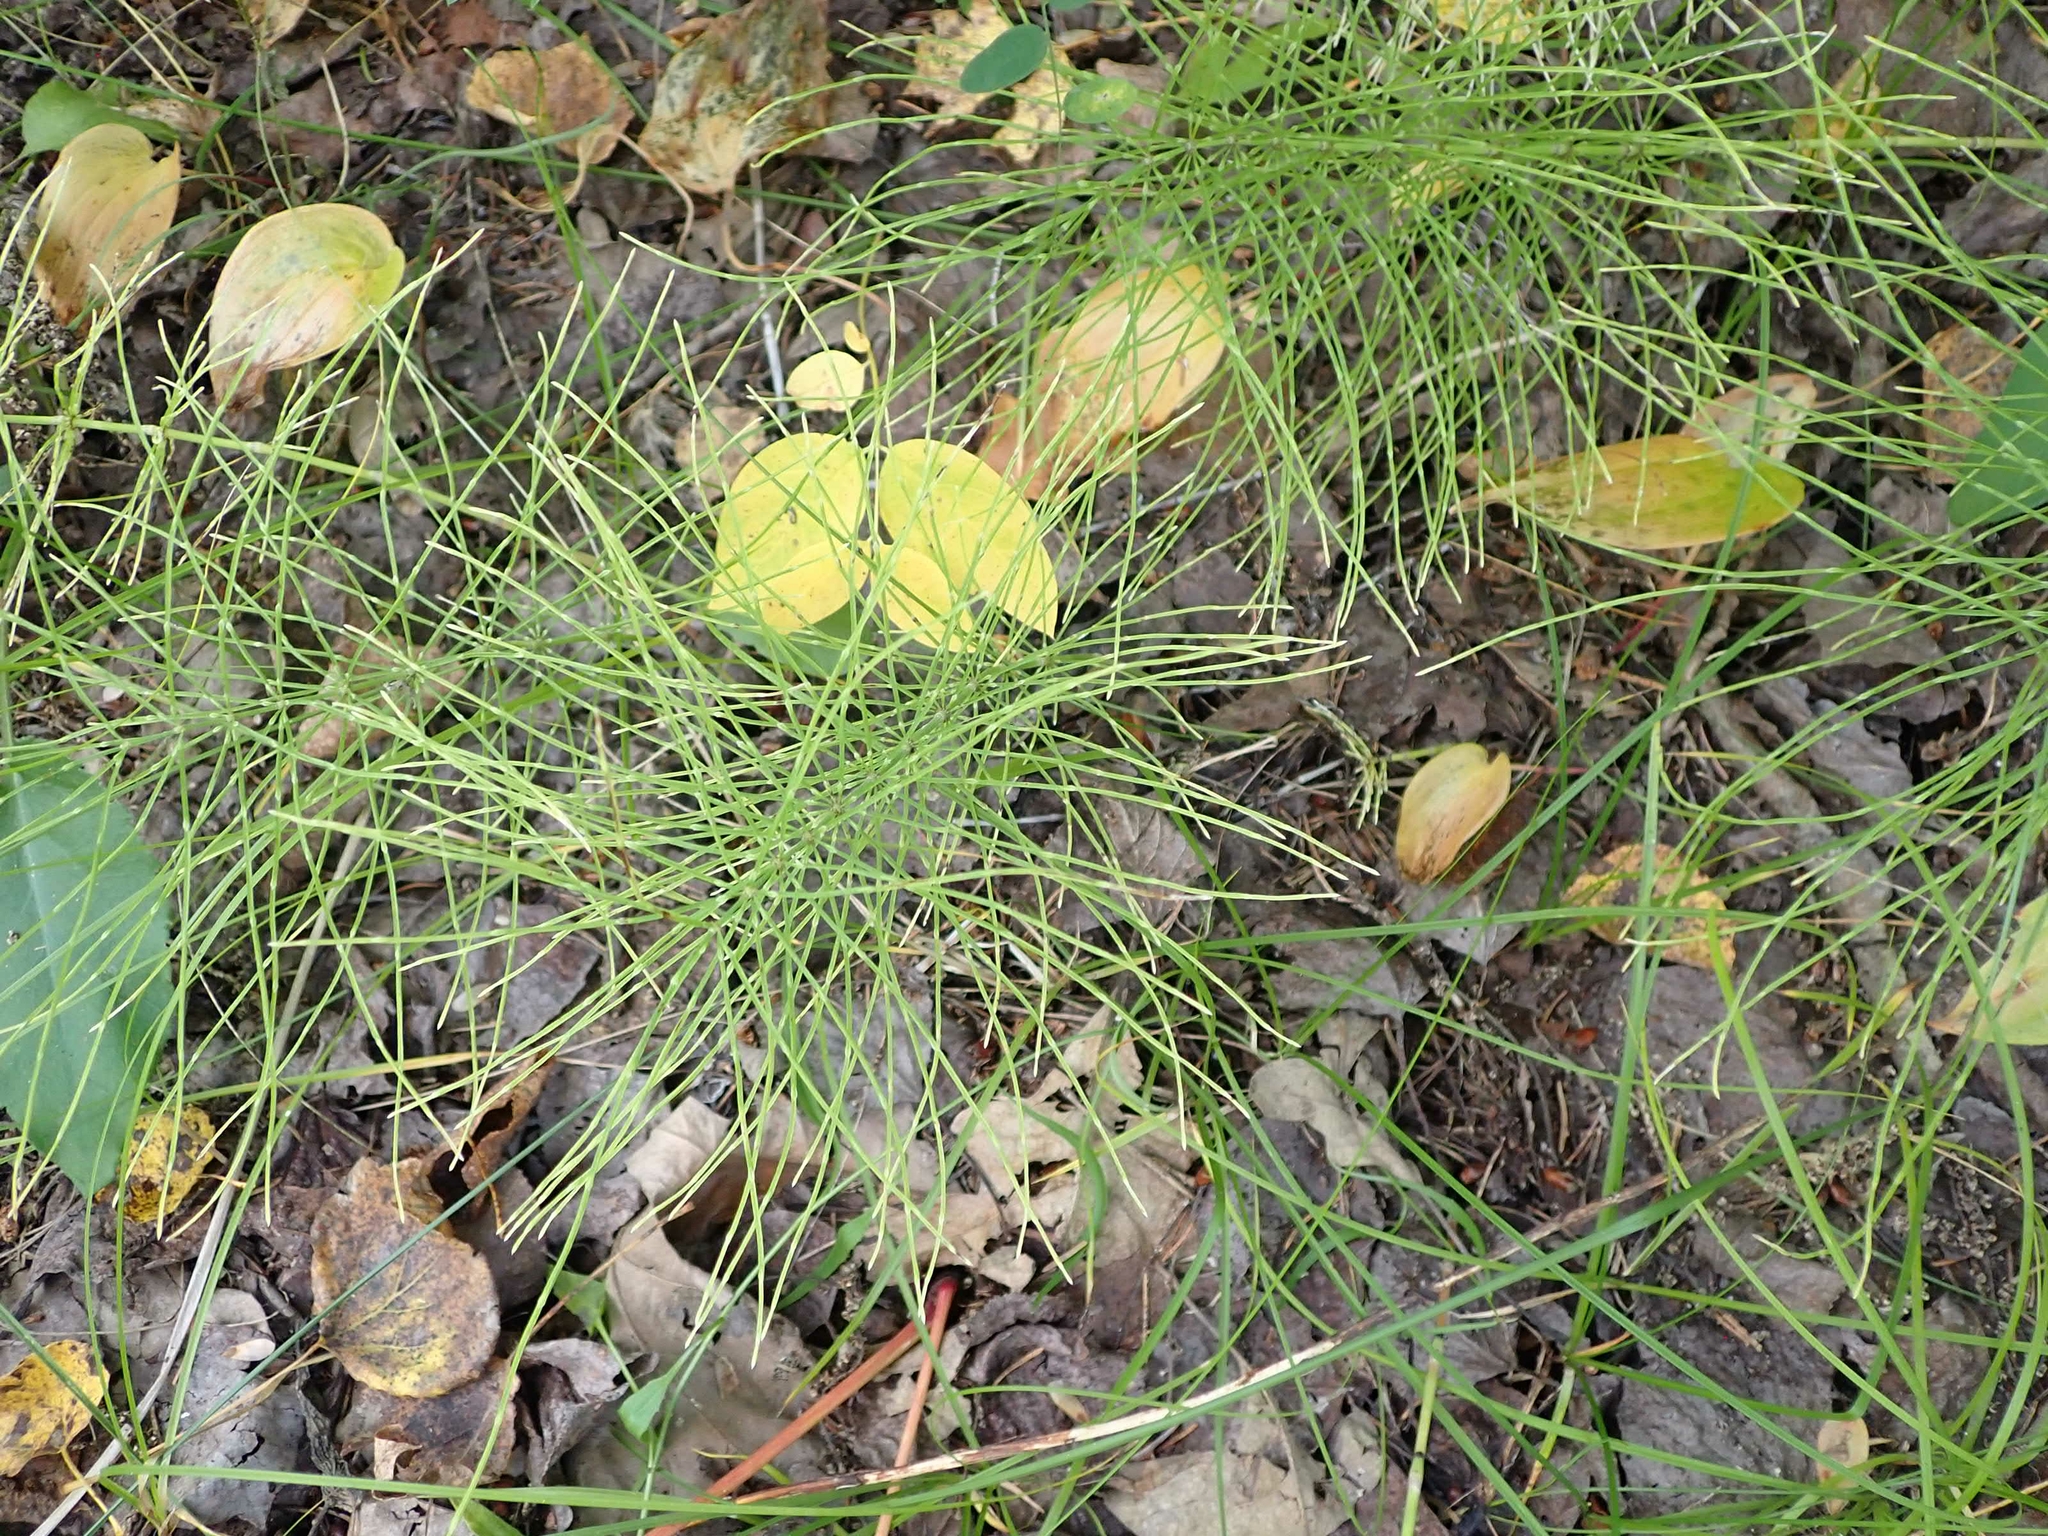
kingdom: Plantae
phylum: Tracheophyta
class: Polypodiopsida
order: Equisetales
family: Equisetaceae
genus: Equisetum
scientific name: Equisetum pratense
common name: Meadow horsetail
